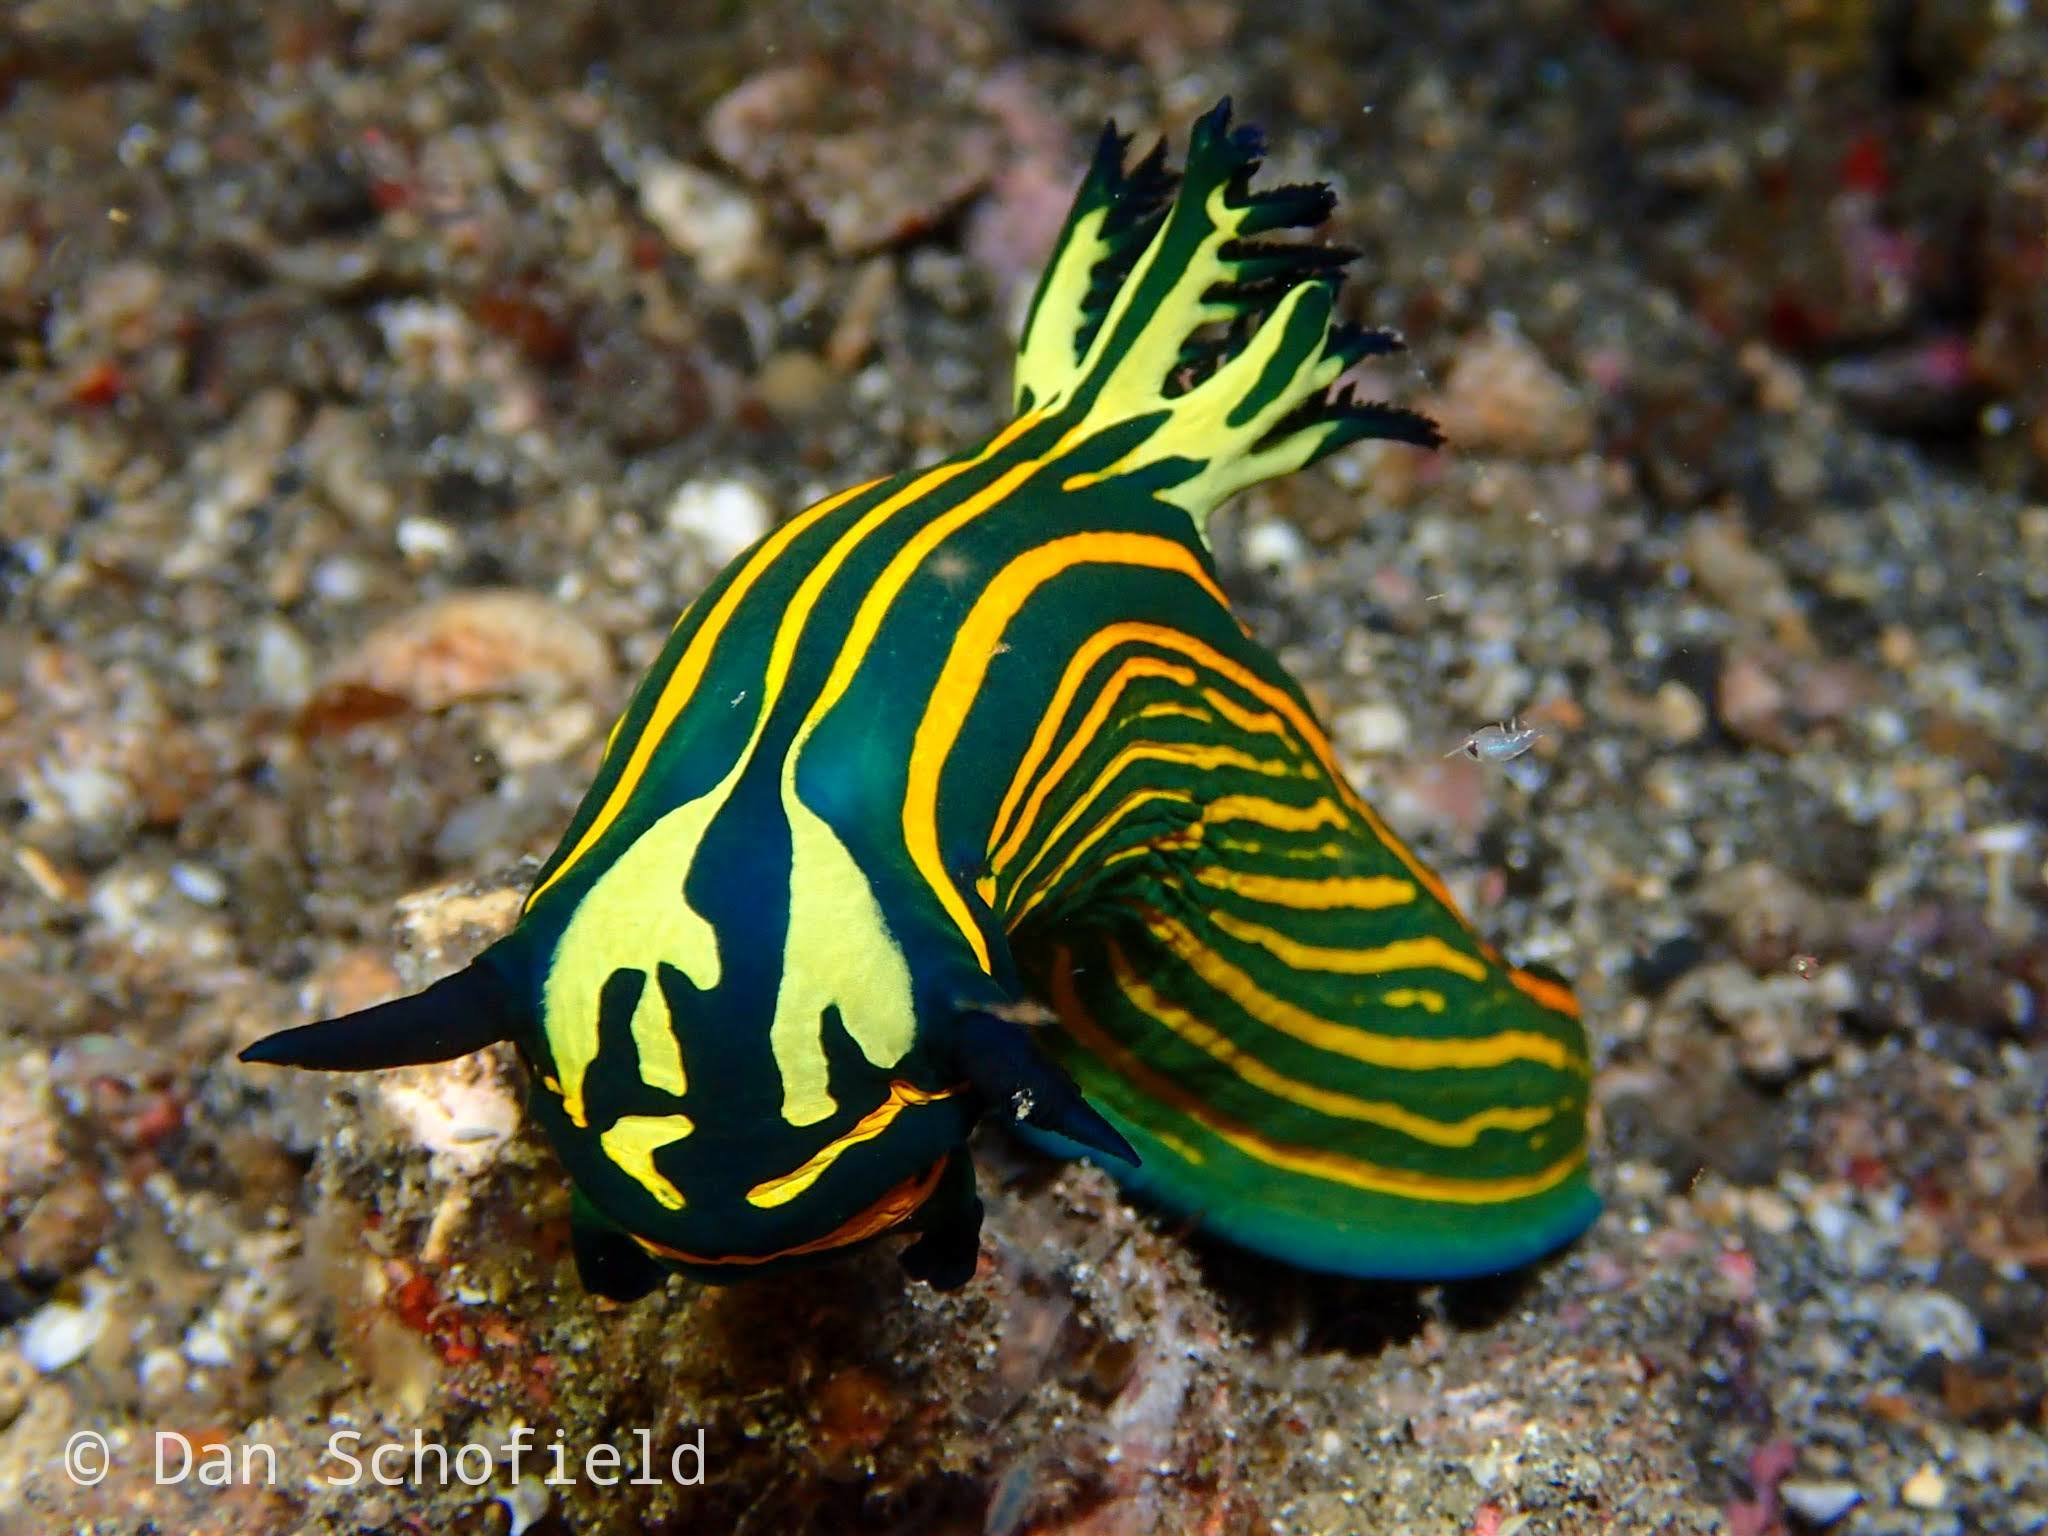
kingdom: Animalia
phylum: Mollusca
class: Gastropoda
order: Nudibranchia
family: Polyceridae
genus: Tyrannodoris
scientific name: Tyrannodoris luteolineata
